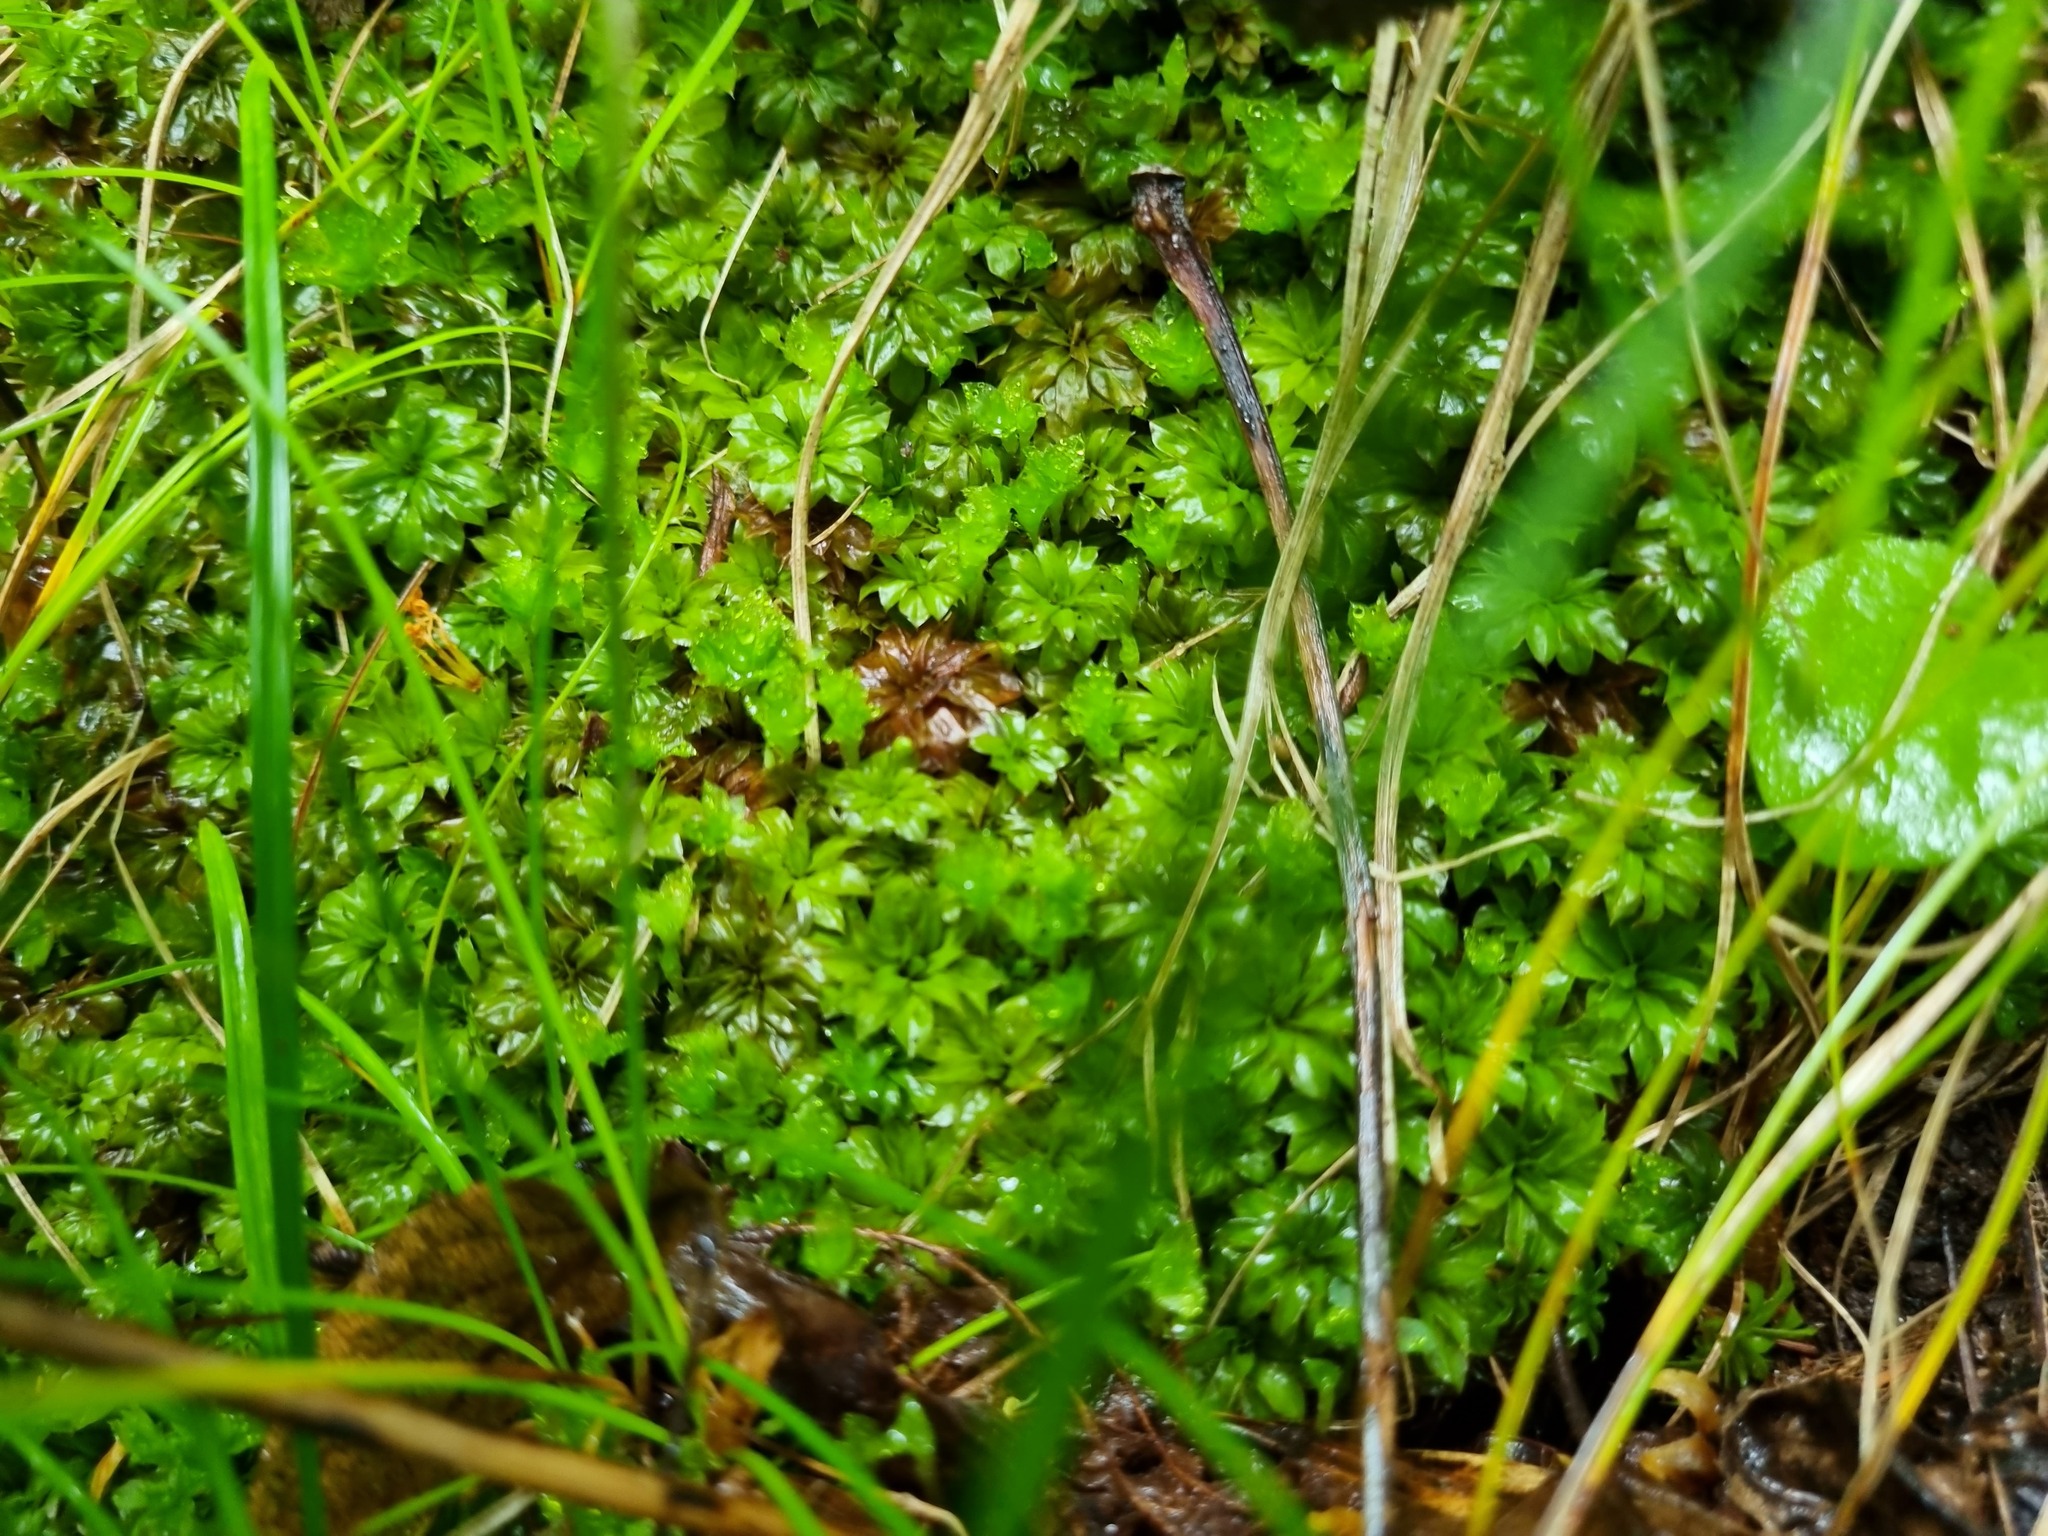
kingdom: Plantae
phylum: Bryophyta
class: Bryopsida
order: Bryales
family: Bryaceae
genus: Rhodobryum
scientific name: Rhodobryum roseum
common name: Rose-moss
